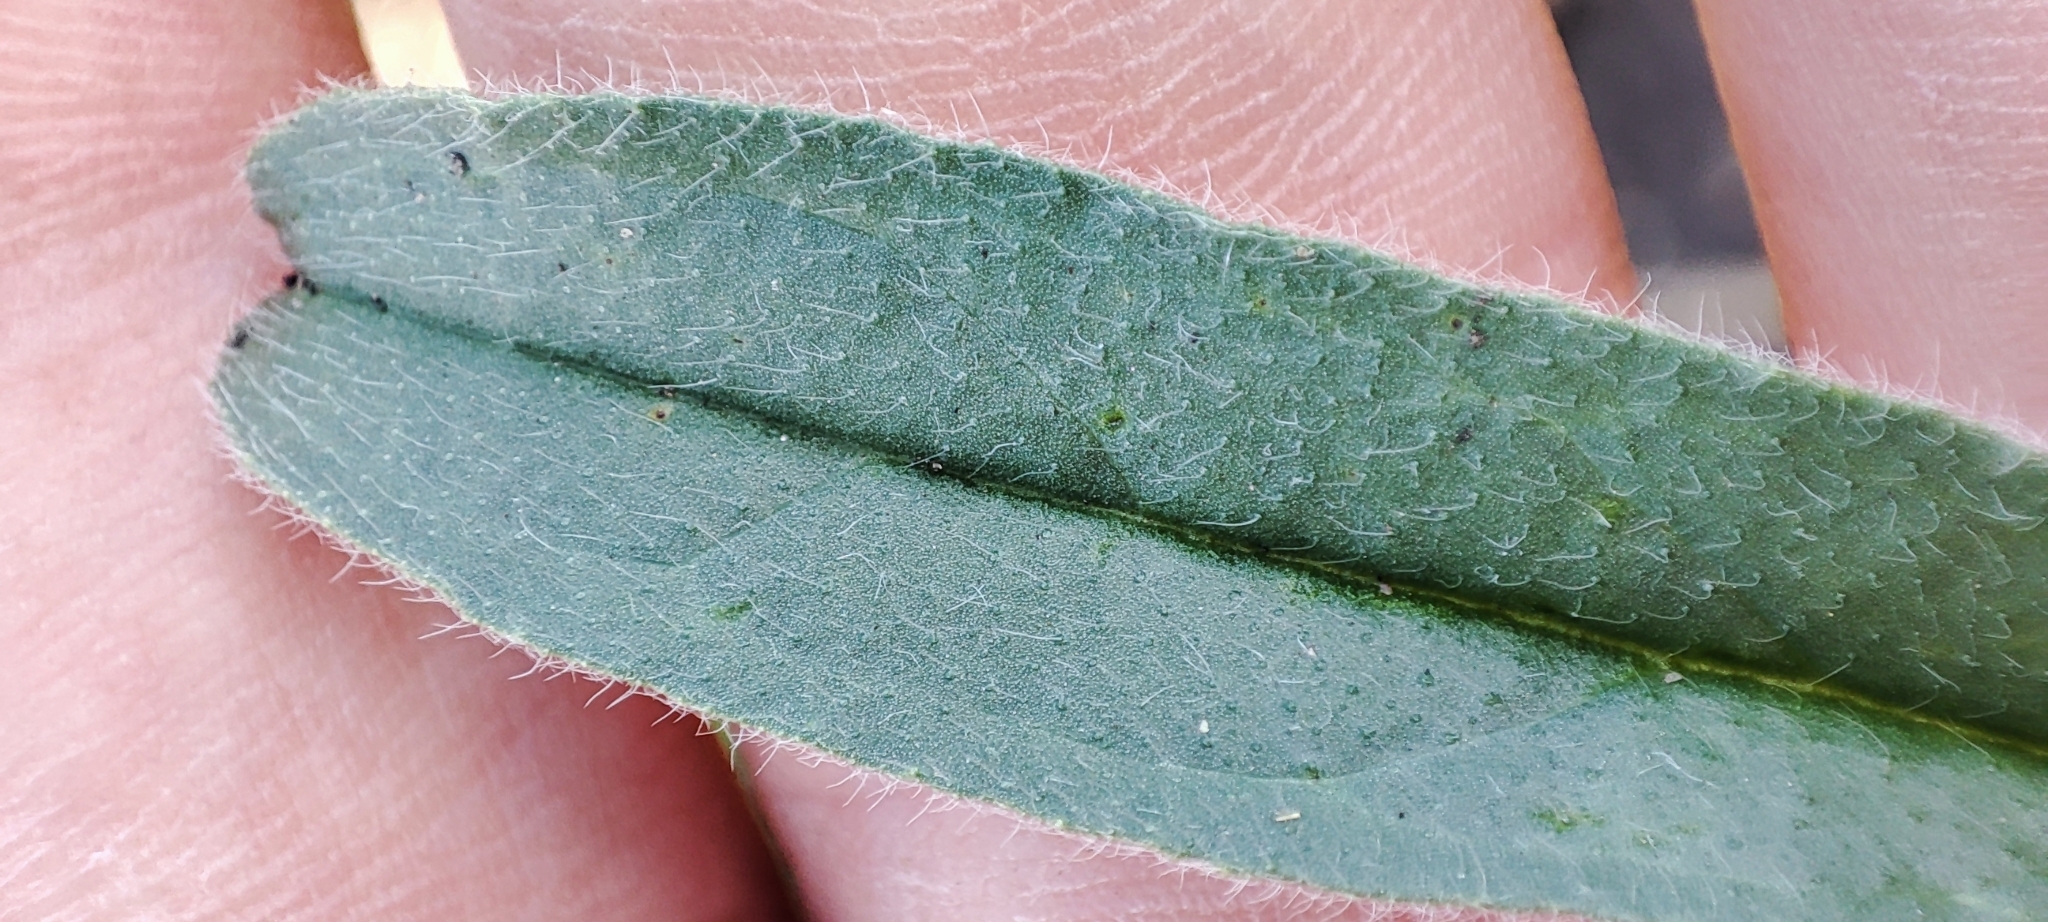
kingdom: Plantae
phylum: Tracheophyta
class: Magnoliopsida
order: Boraginales
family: Boraginaceae
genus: Echium
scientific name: Echium vulgare
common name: Common viper's bugloss
